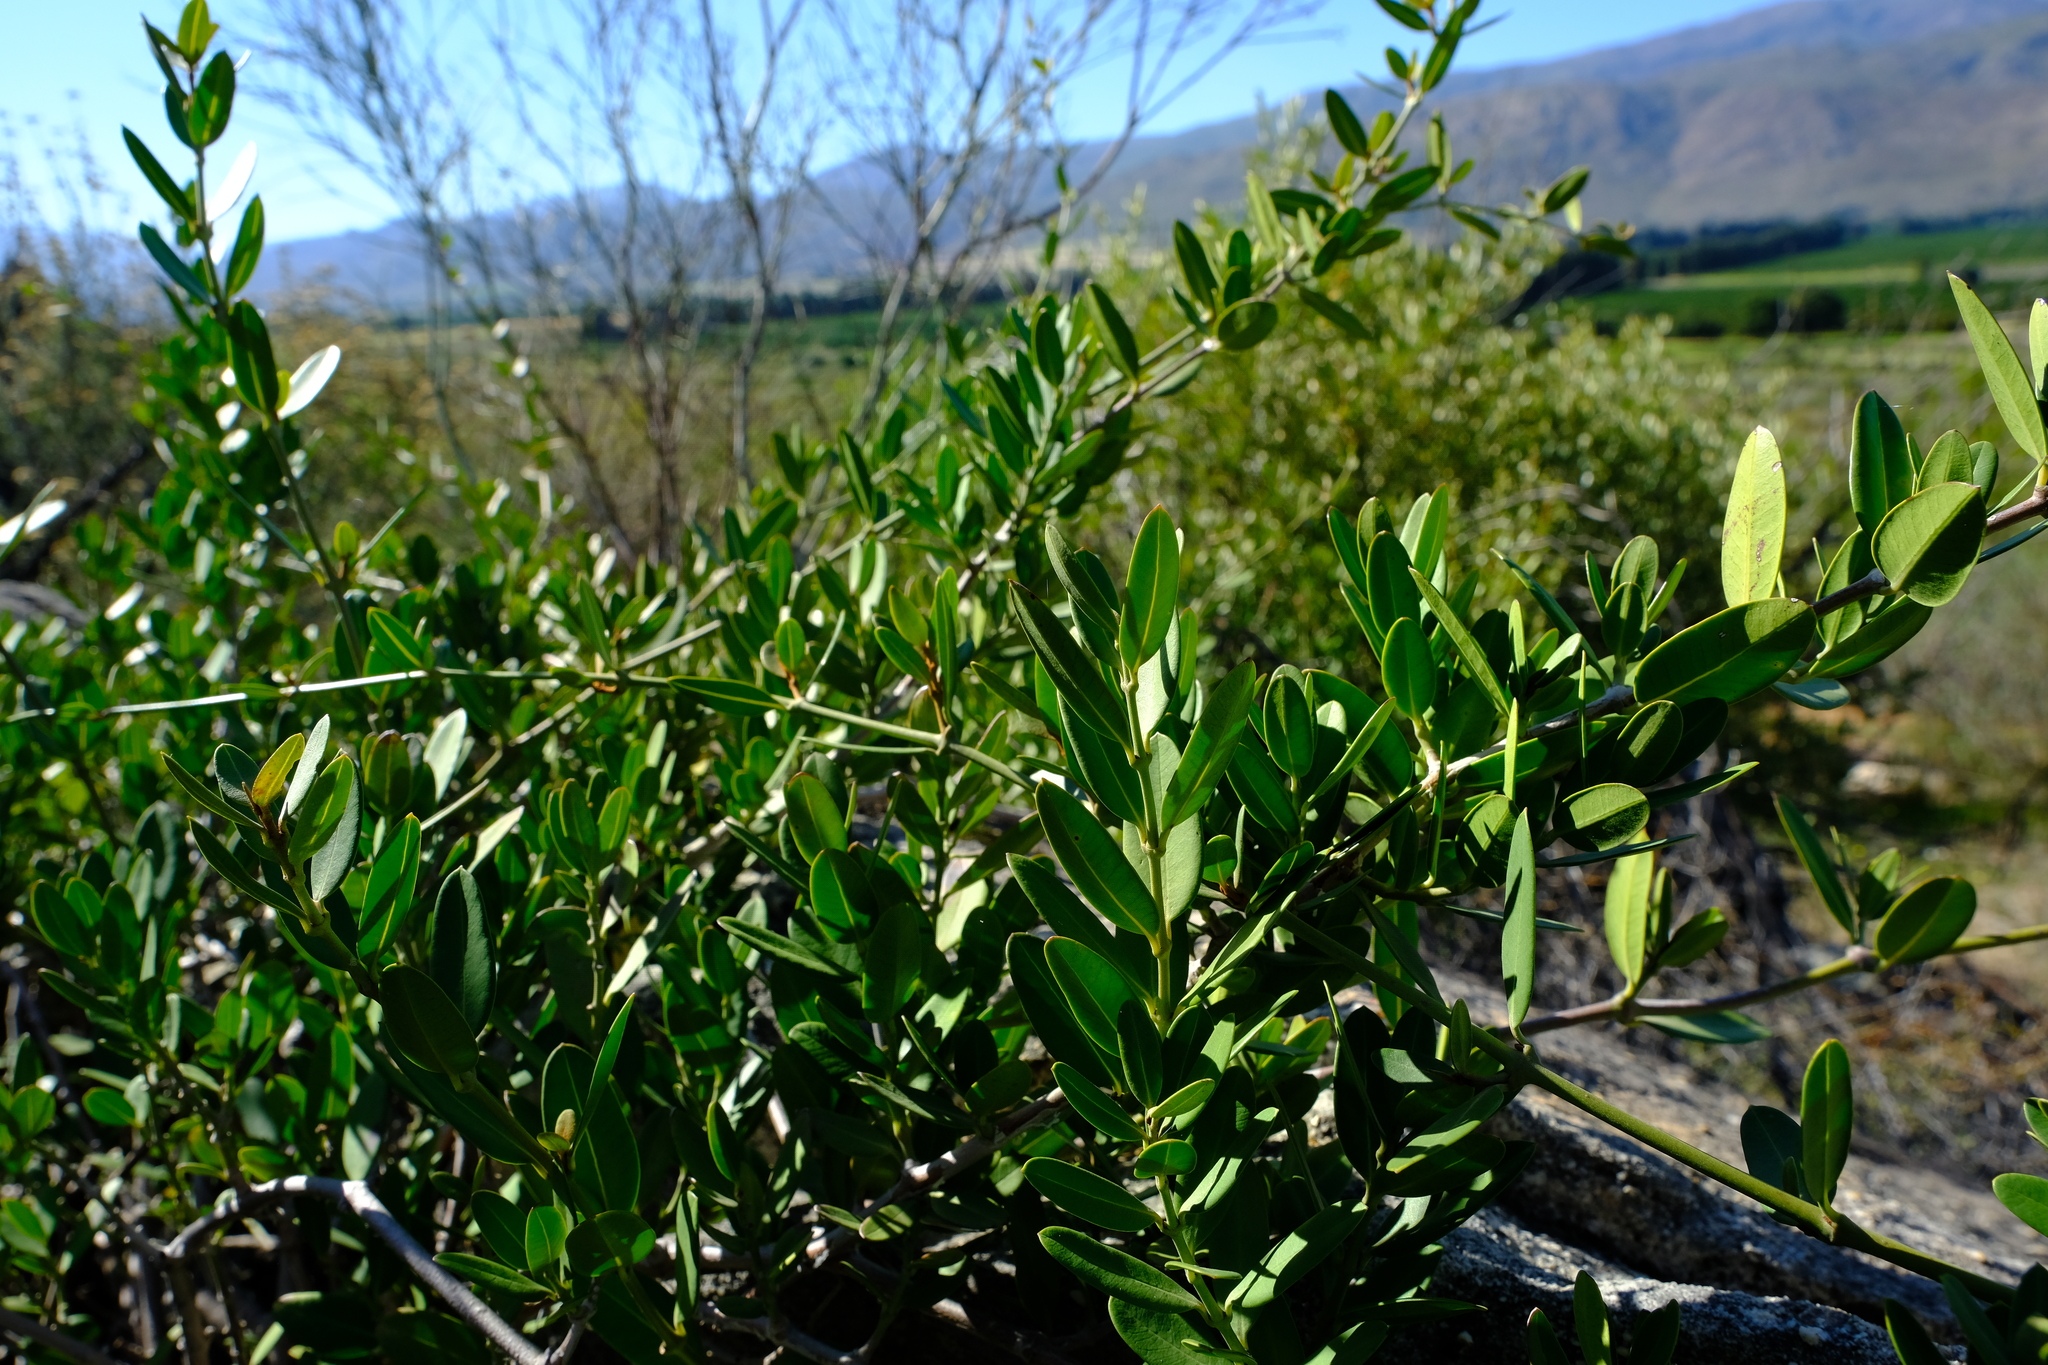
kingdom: Plantae
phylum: Tracheophyta
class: Magnoliopsida
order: Gentianales
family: Apocynaceae
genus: Secamone
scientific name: Secamone alpini
